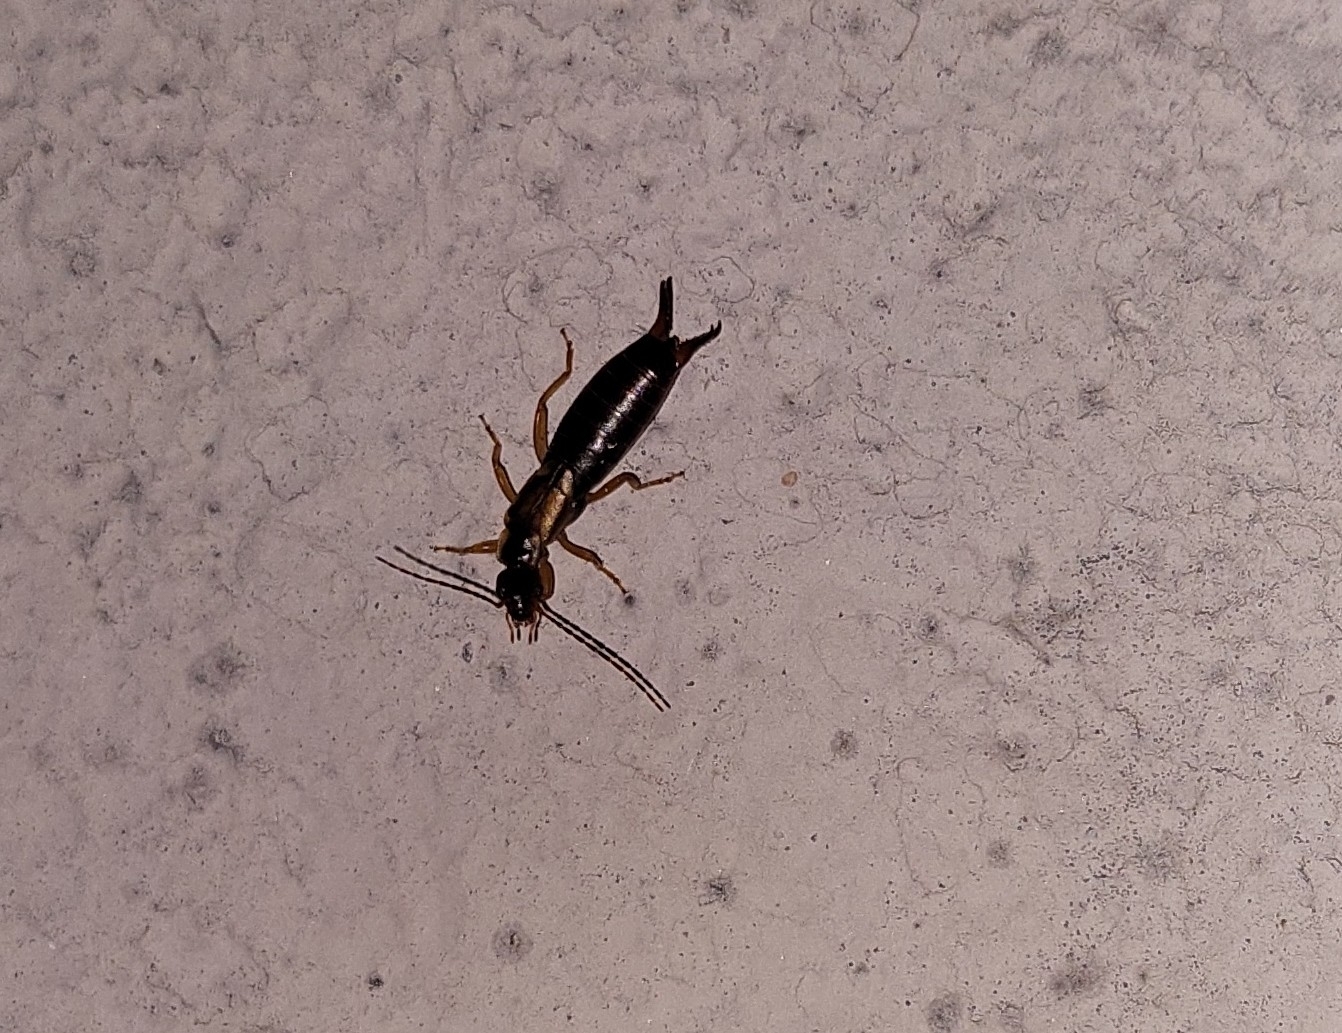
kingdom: Animalia
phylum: Arthropoda
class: Insecta
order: Dermaptera
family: Forficulidae
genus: Forficula
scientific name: Forficula
